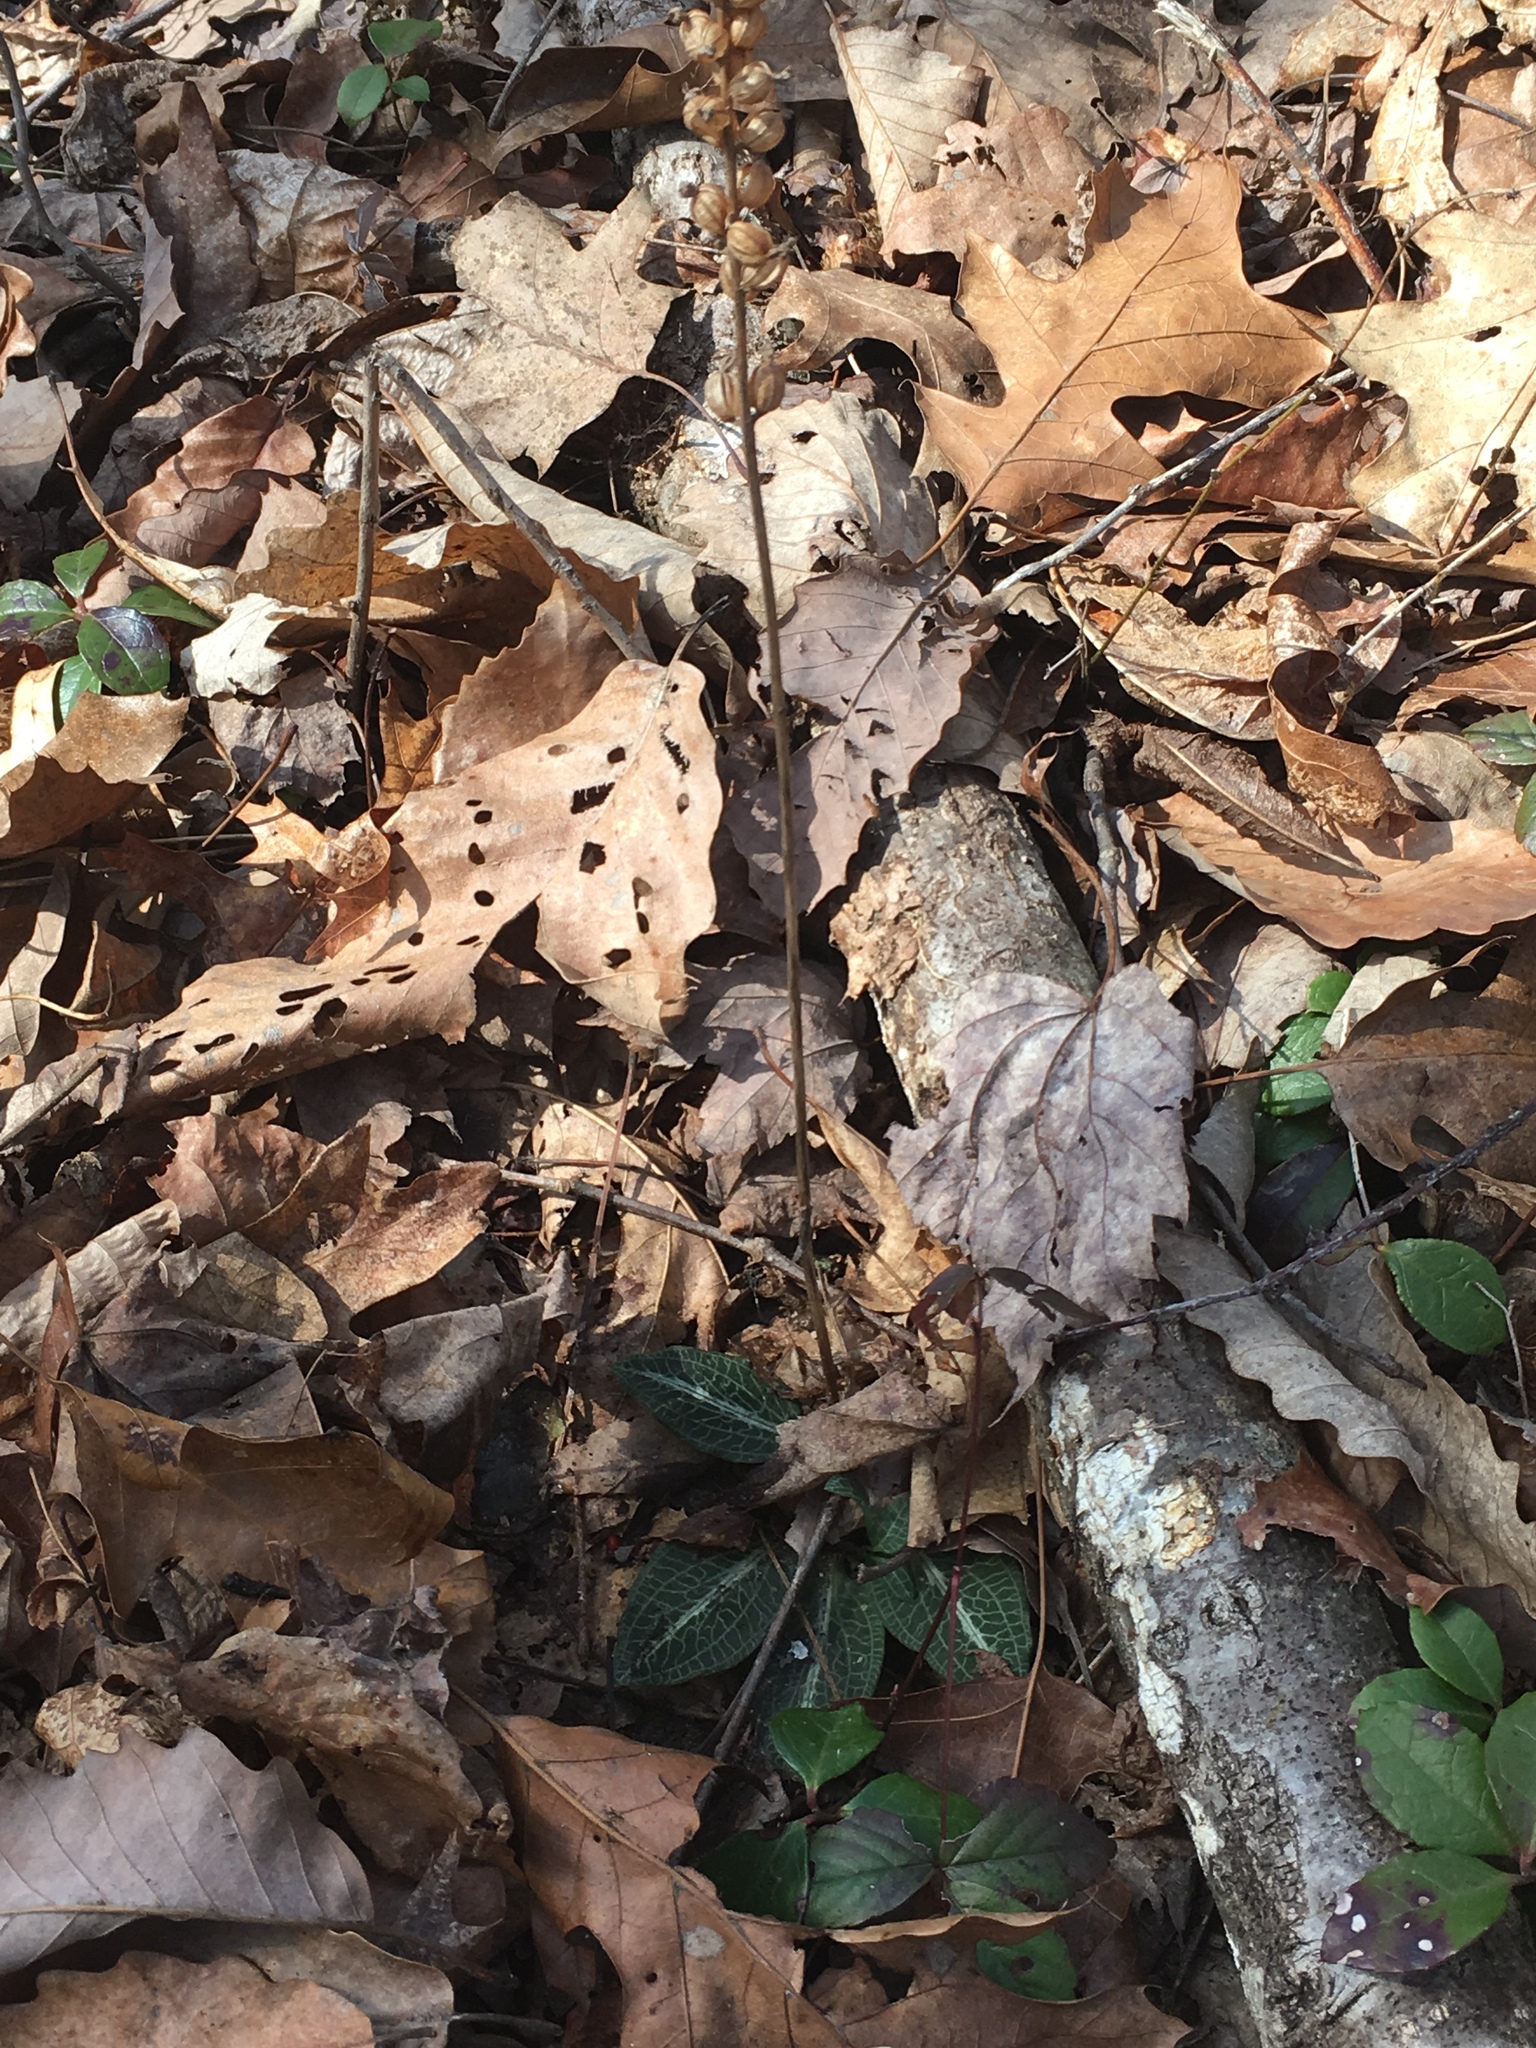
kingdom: Plantae
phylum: Tracheophyta
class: Liliopsida
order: Asparagales
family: Orchidaceae
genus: Goodyera
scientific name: Goodyera pubescens
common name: Downy rattlesnake-plantain
